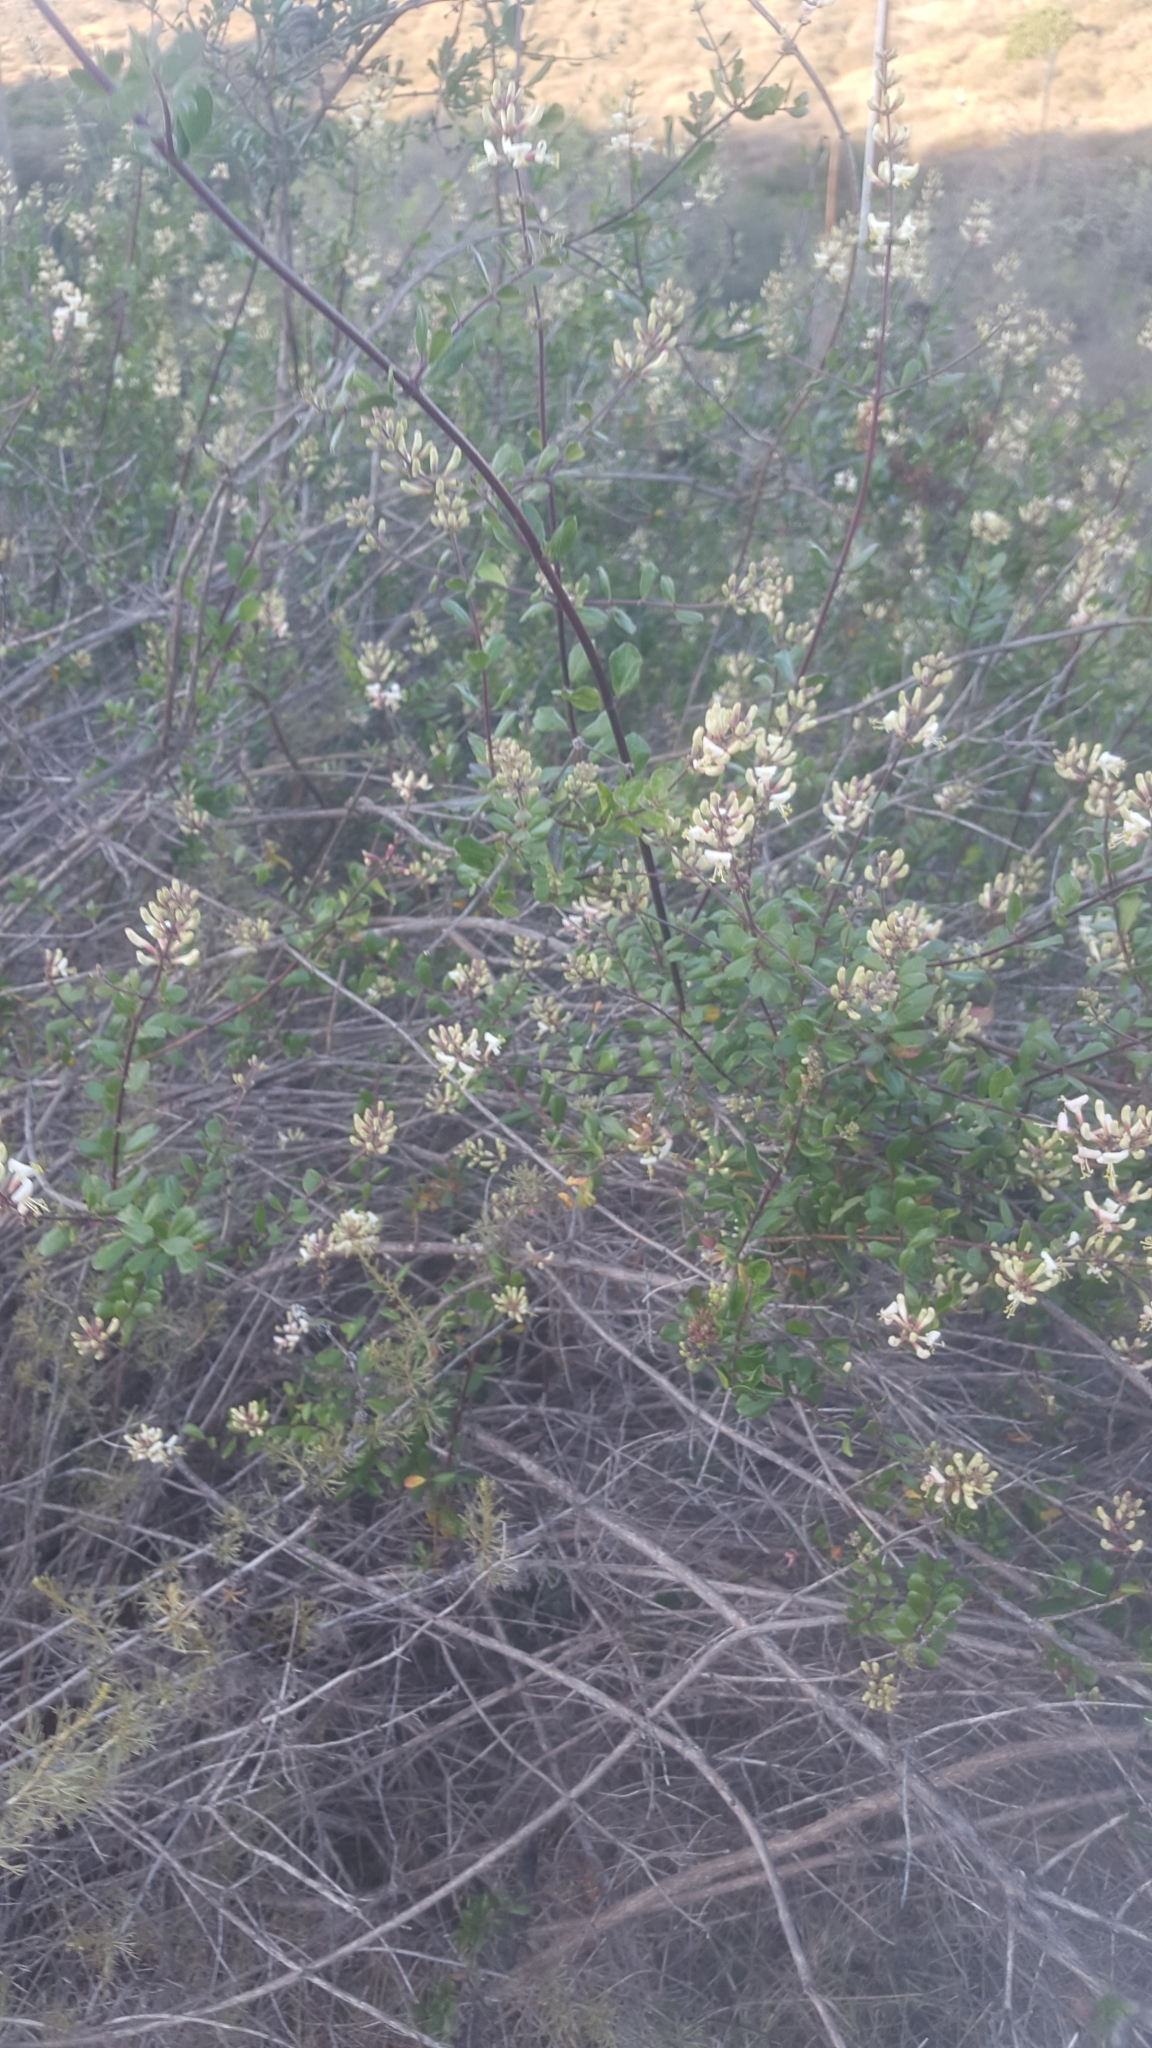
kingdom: Plantae
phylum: Tracheophyta
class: Magnoliopsida
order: Dipsacales
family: Caprifoliaceae
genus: Lonicera
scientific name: Lonicera subspicata
